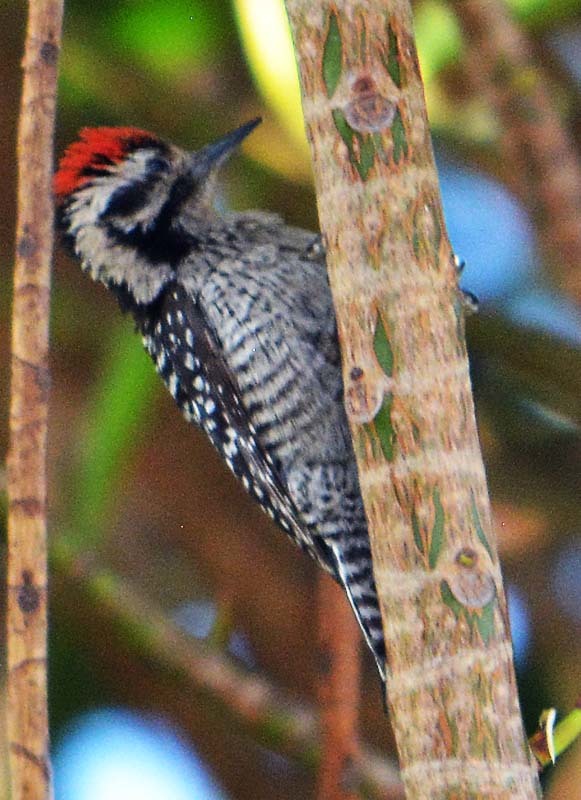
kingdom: Animalia
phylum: Chordata
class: Aves
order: Piciformes
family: Picidae
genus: Dryobates
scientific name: Dryobates scalaris
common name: Ladder-backed woodpecker
